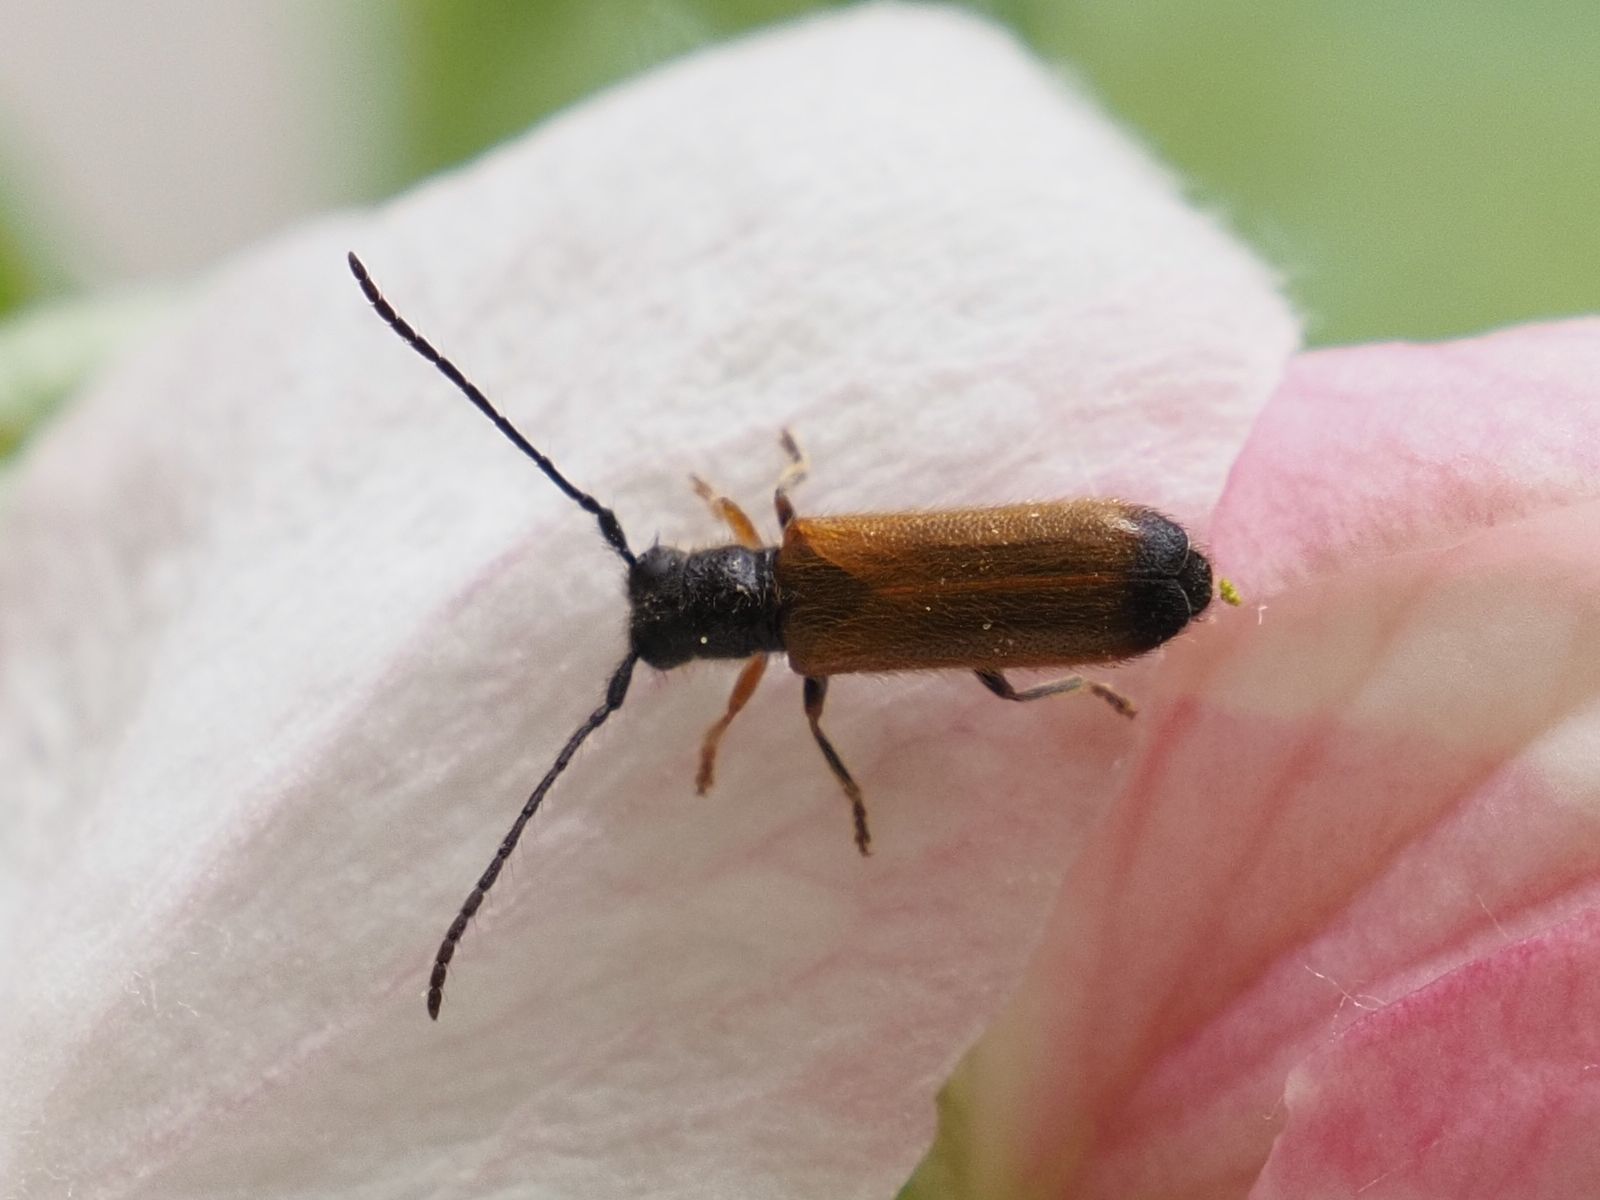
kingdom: Animalia
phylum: Arthropoda
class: Insecta
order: Coleoptera
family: Cerambycidae
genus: Tetrops
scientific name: Tetrops praeustus
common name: Plum beetle
